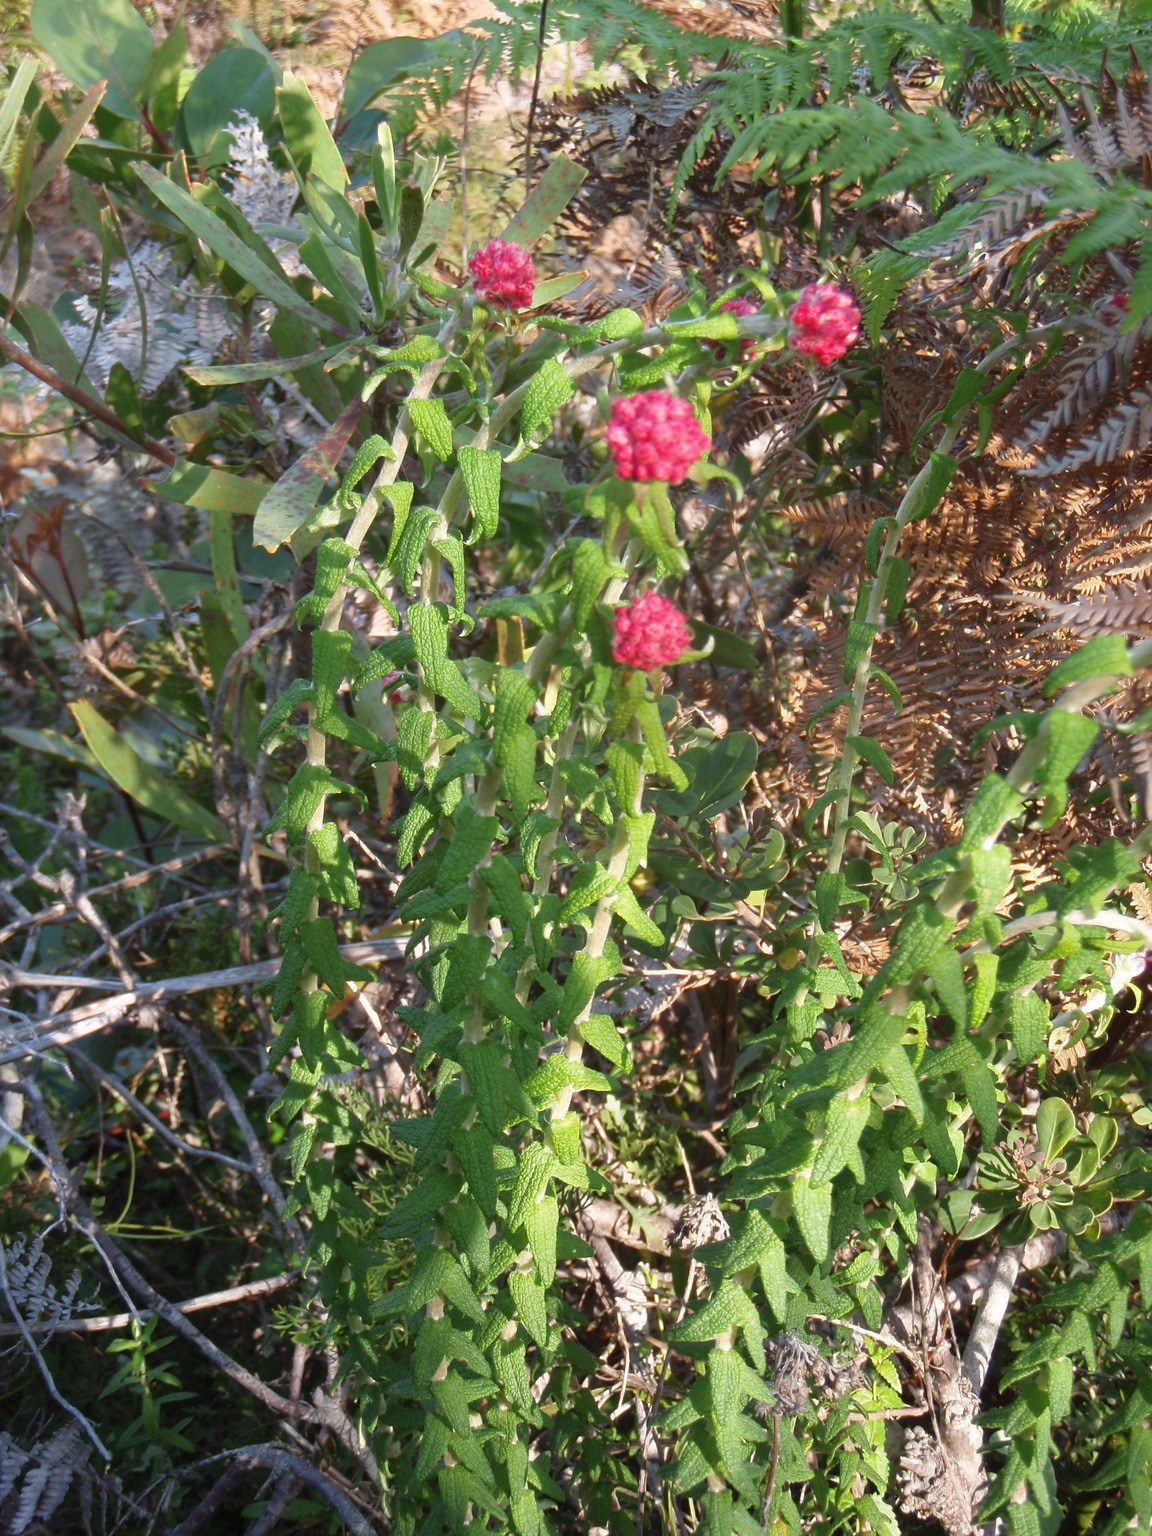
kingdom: Plantae
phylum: Tracheophyta
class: Magnoliopsida
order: Asterales
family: Asteraceae
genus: Helichrysum
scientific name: Helichrysum felinum
